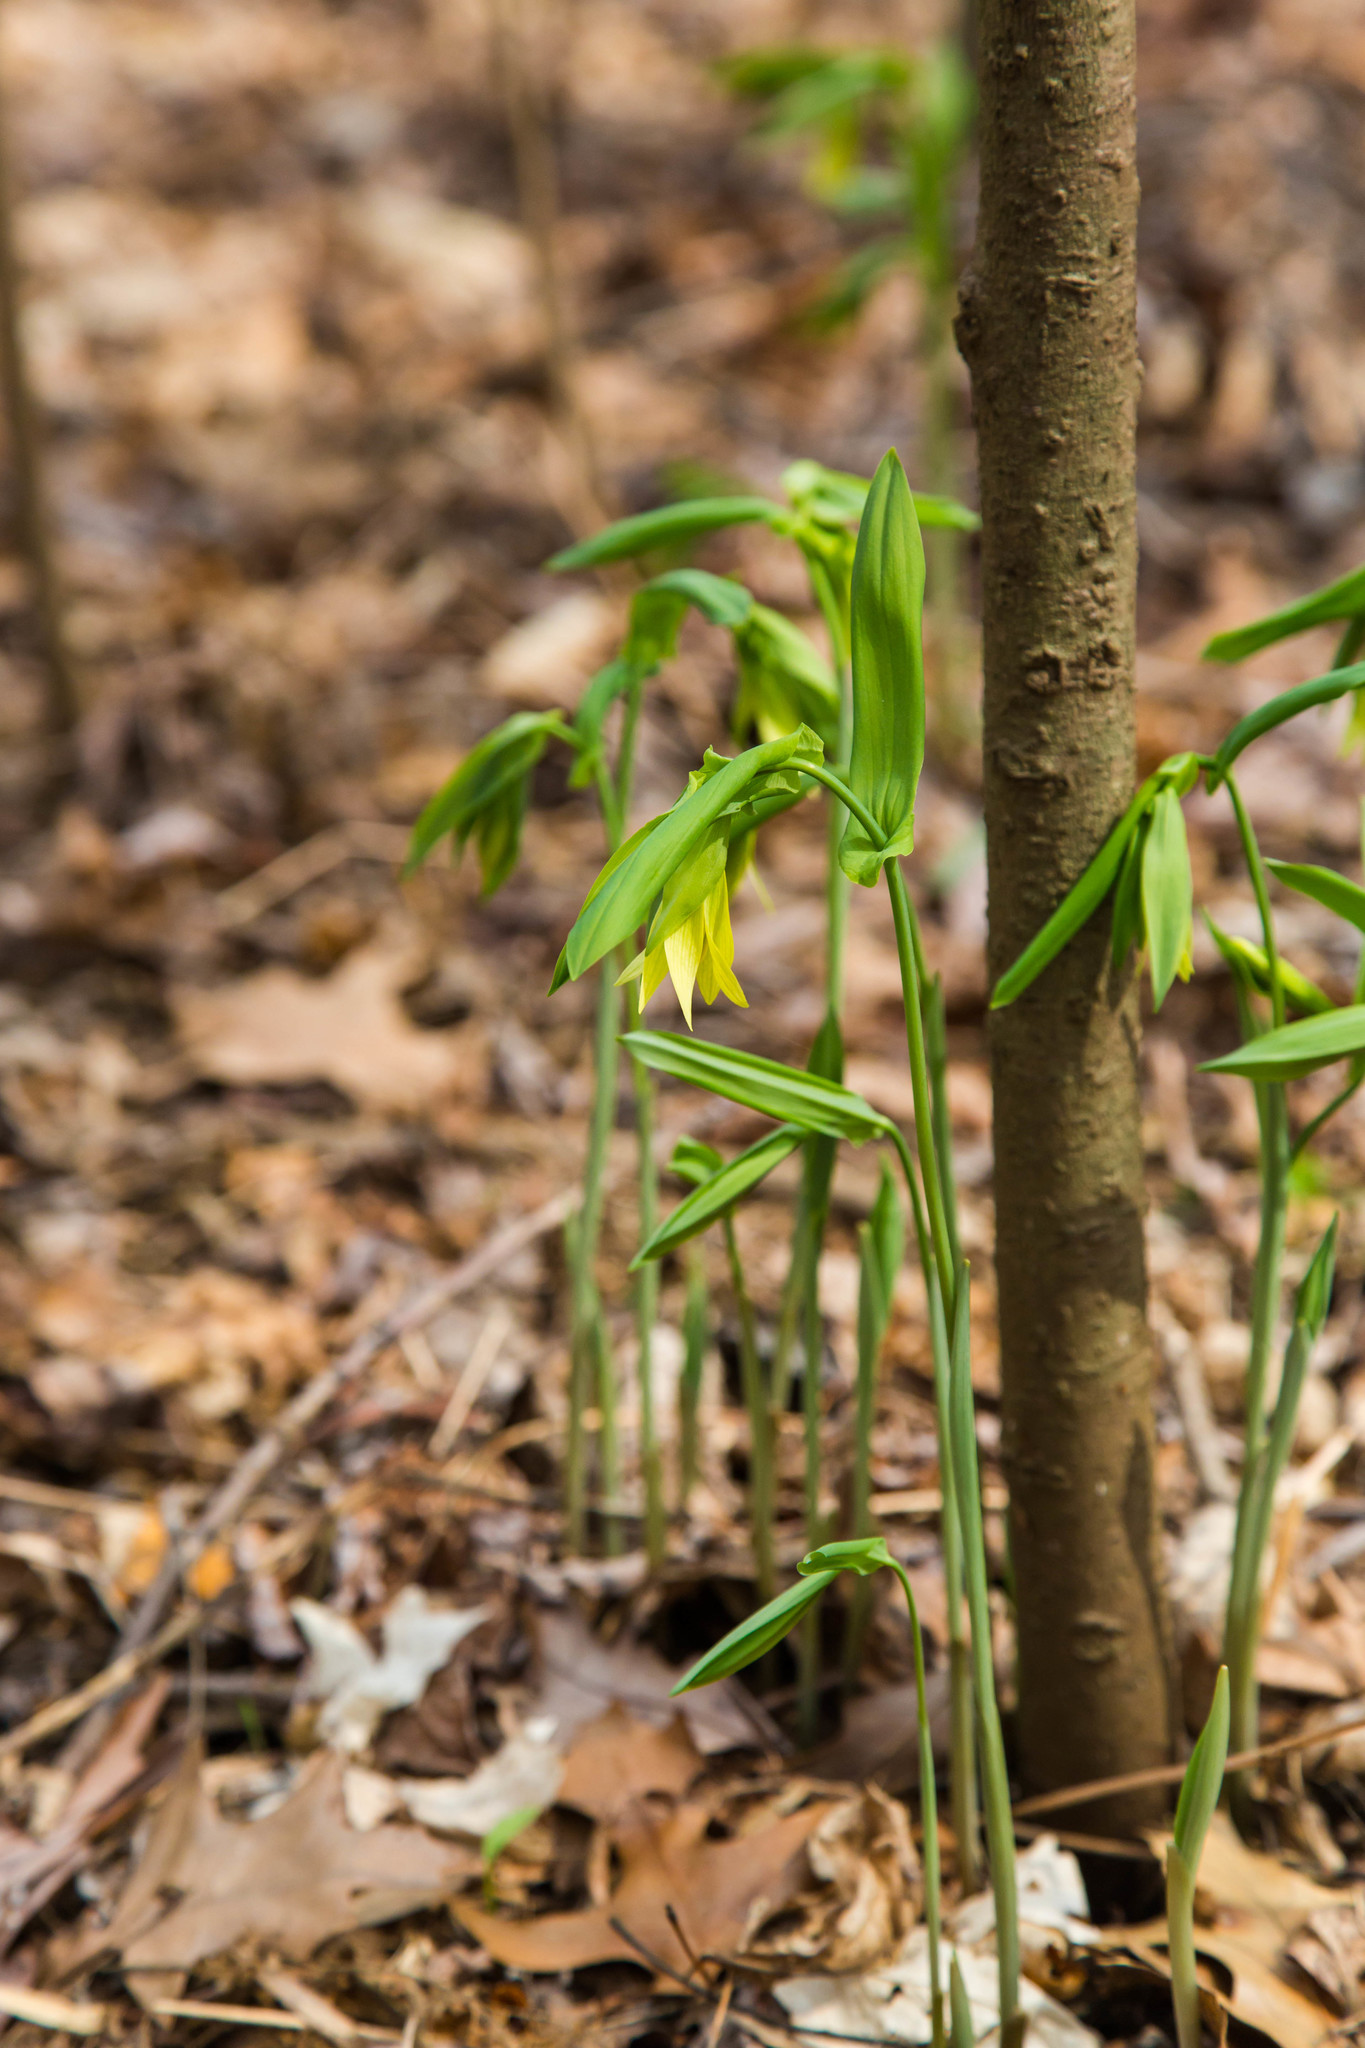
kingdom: Plantae
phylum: Tracheophyta
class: Liliopsida
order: Liliales
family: Colchicaceae
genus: Uvularia
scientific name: Uvularia grandiflora
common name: Bellwort
